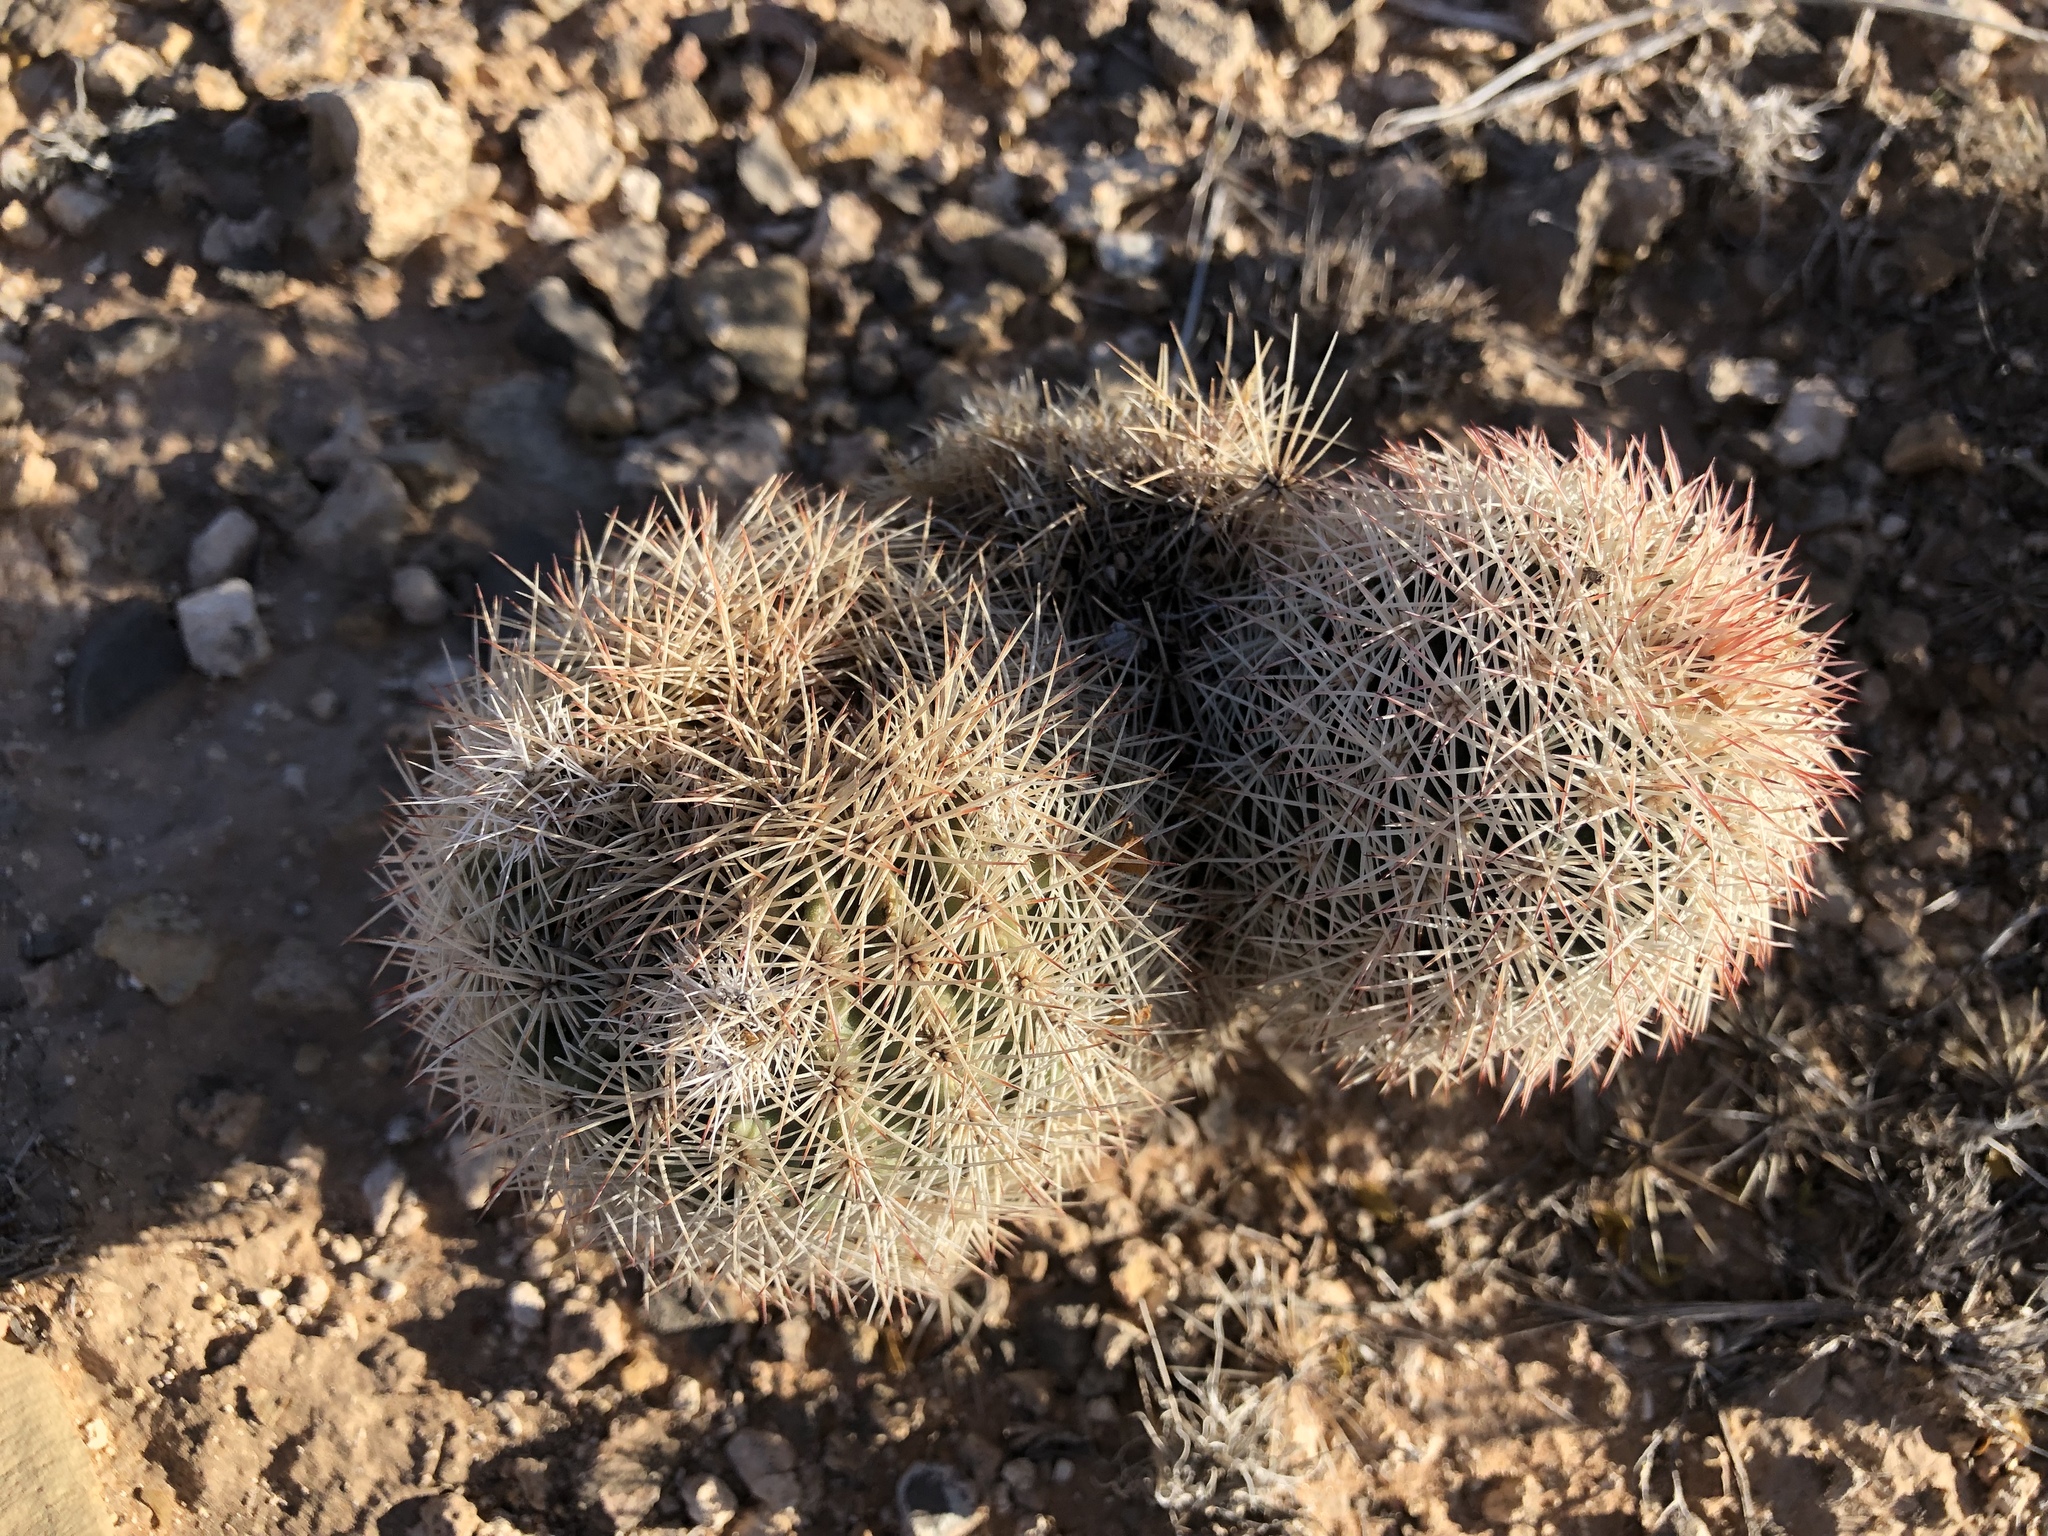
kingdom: Plantae
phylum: Tracheophyta
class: Magnoliopsida
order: Caryophyllales
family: Cactaceae
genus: Echinocereus
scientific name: Echinocereus dasyacanthus
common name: Spiny hedgehog cactus
